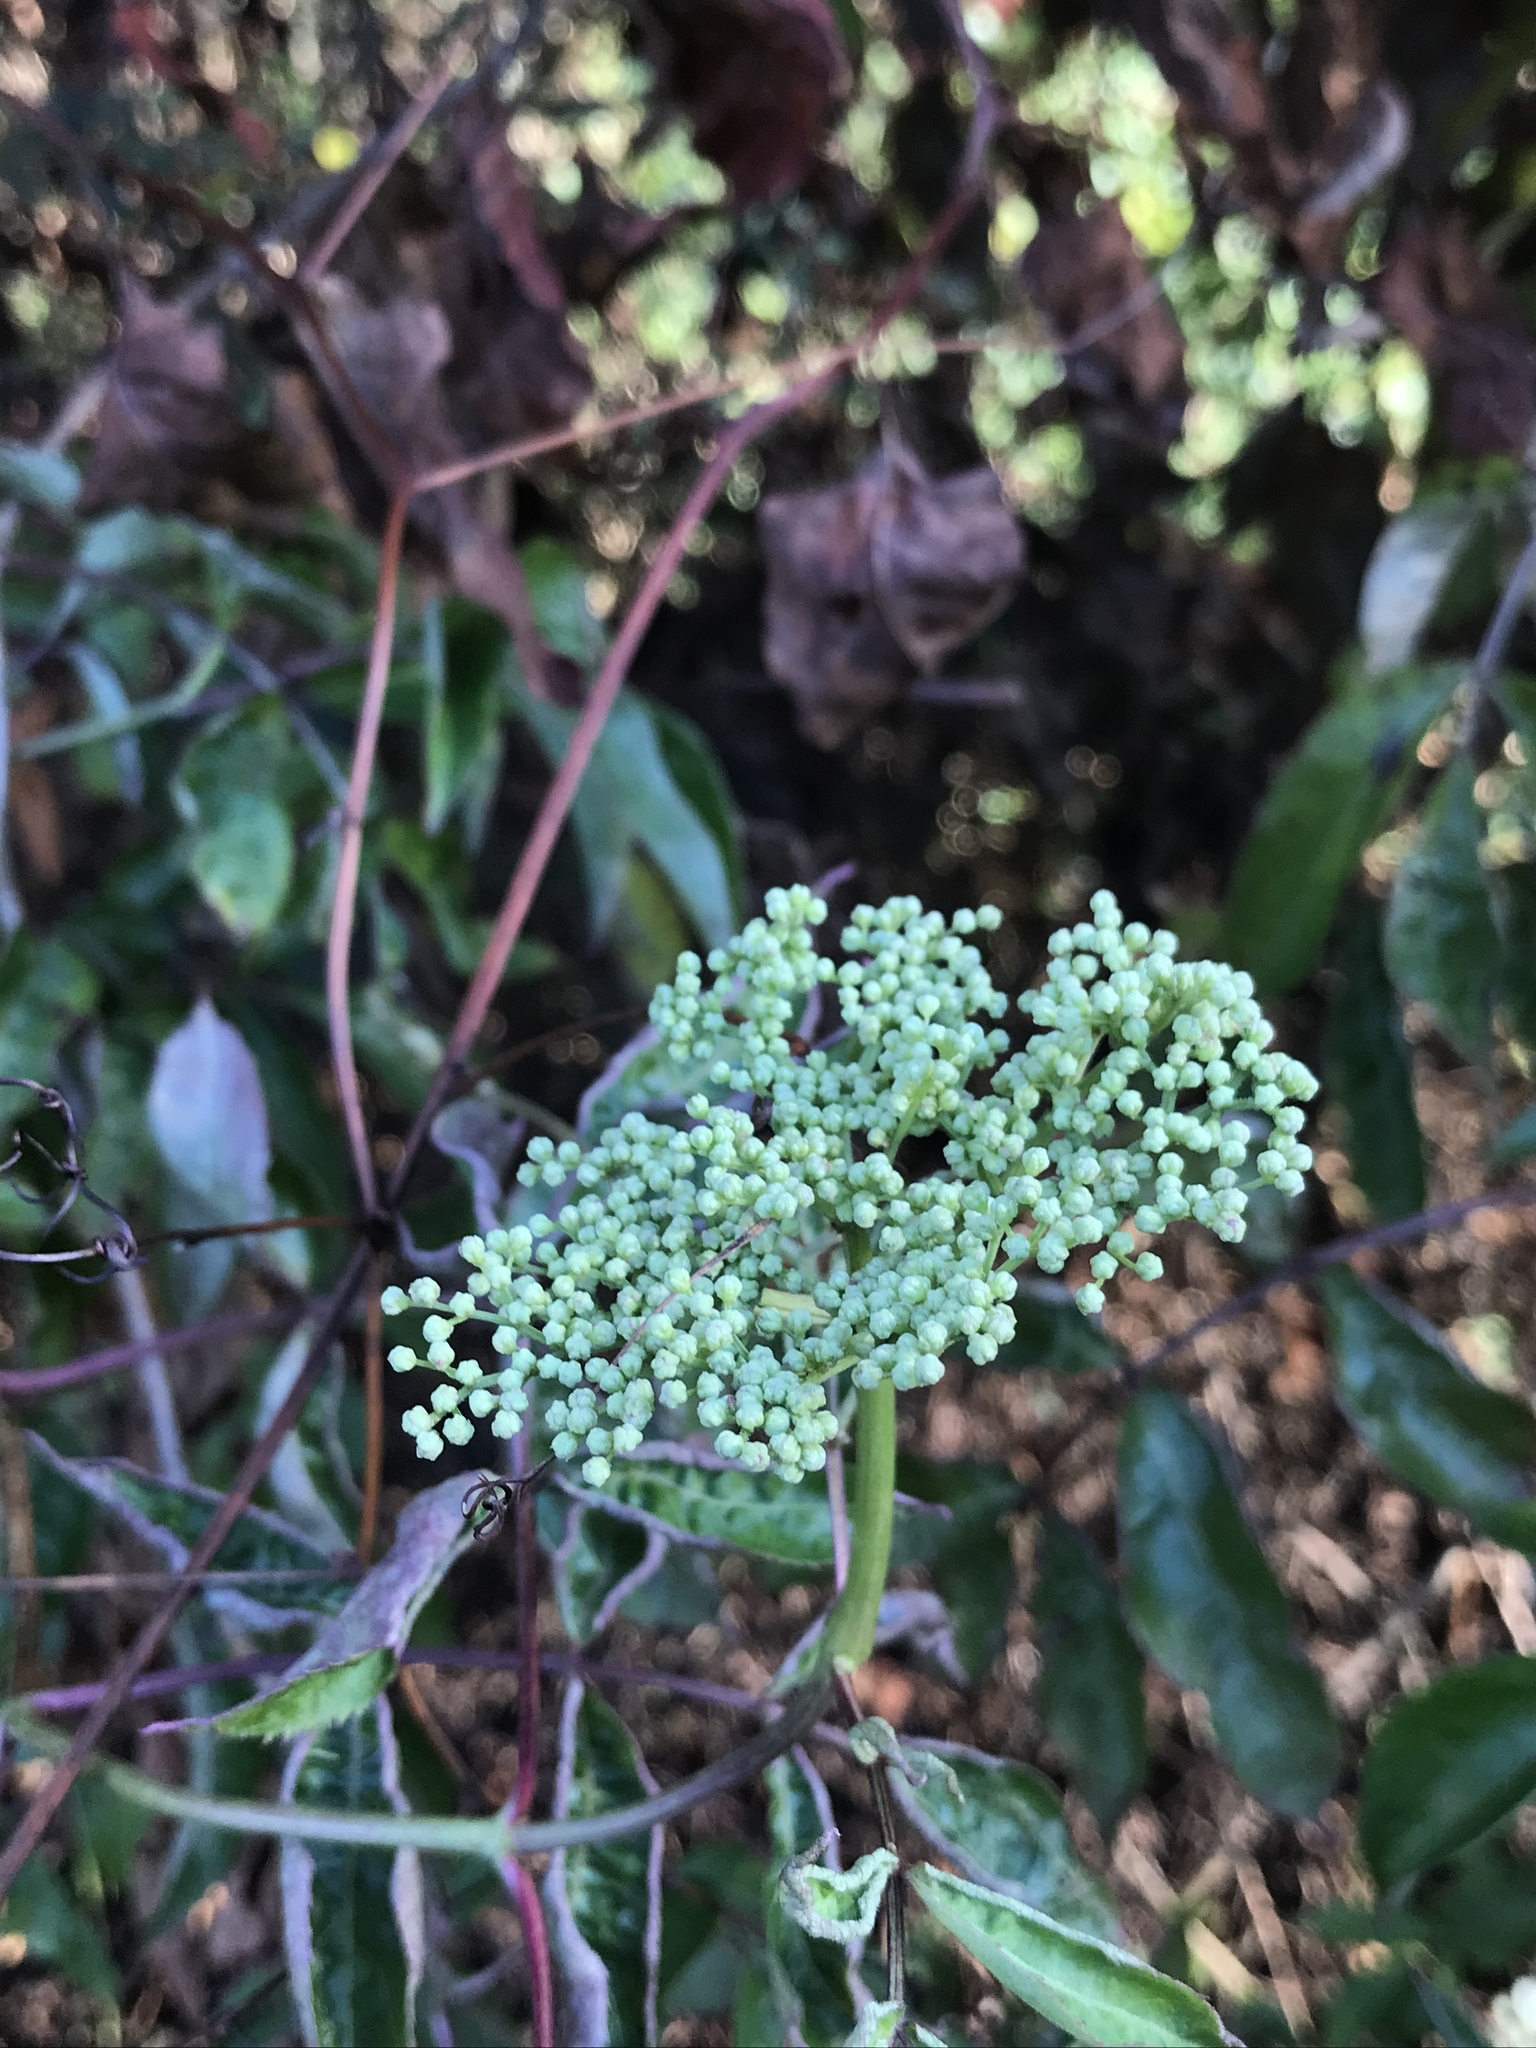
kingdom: Plantae
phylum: Tracheophyta
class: Magnoliopsida
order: Dipsacales
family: Viburnaceae
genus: Sambucus
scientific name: Sambucus canadensis
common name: American elder
